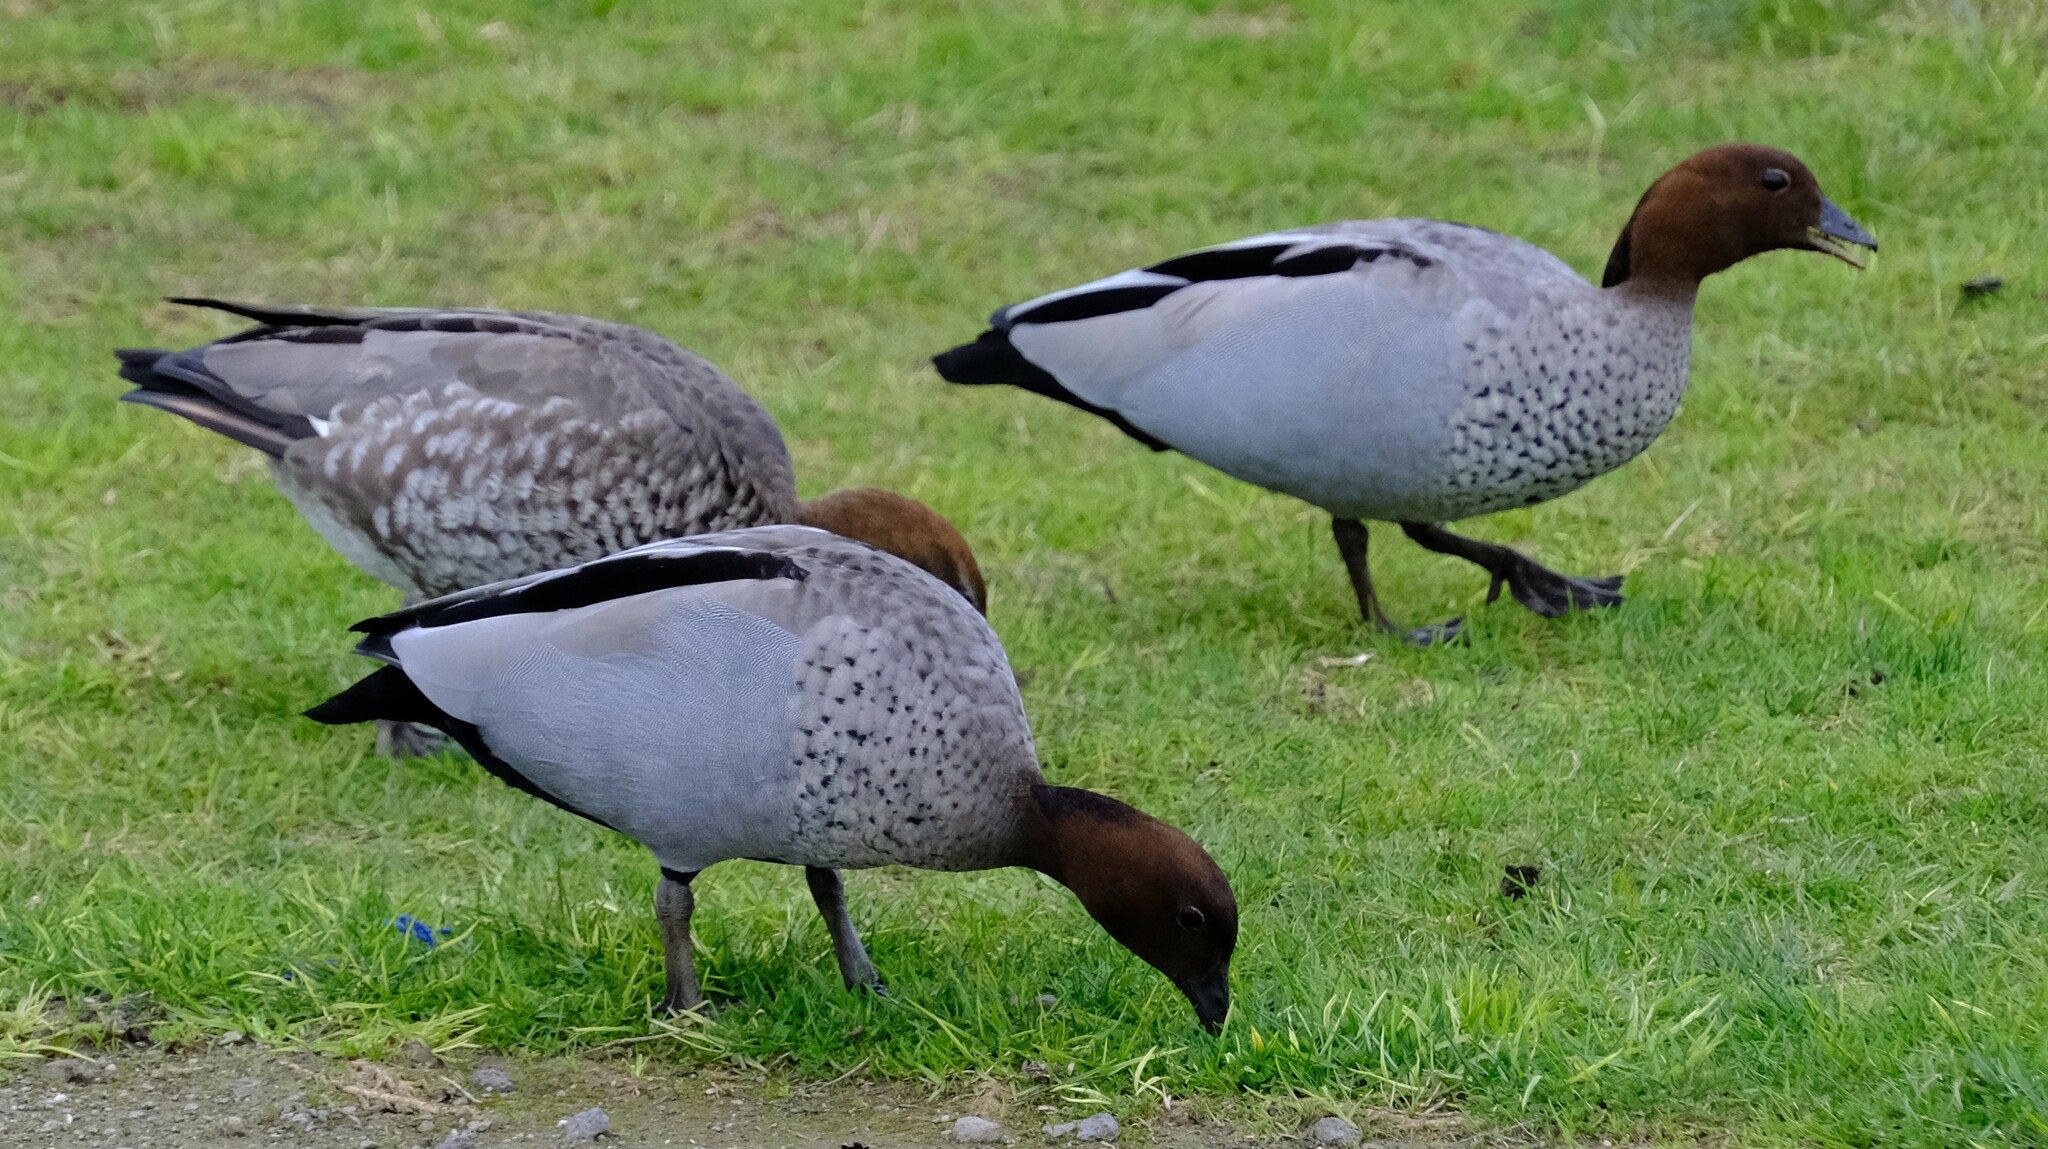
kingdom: Animalia
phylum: Chordata
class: Aves
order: Anseriformes
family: Anatidae
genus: Chenonetta
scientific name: Chenonetta jubata
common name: Maned duck
